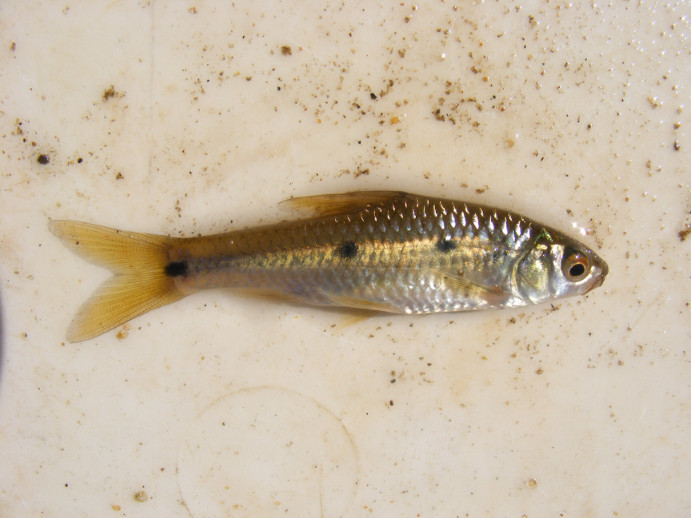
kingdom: Animalia
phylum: Chordata
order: Cypriniformes
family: Cyprinidae
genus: Enteromius
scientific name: Enteromius trimaculatus
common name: Threespot barb
